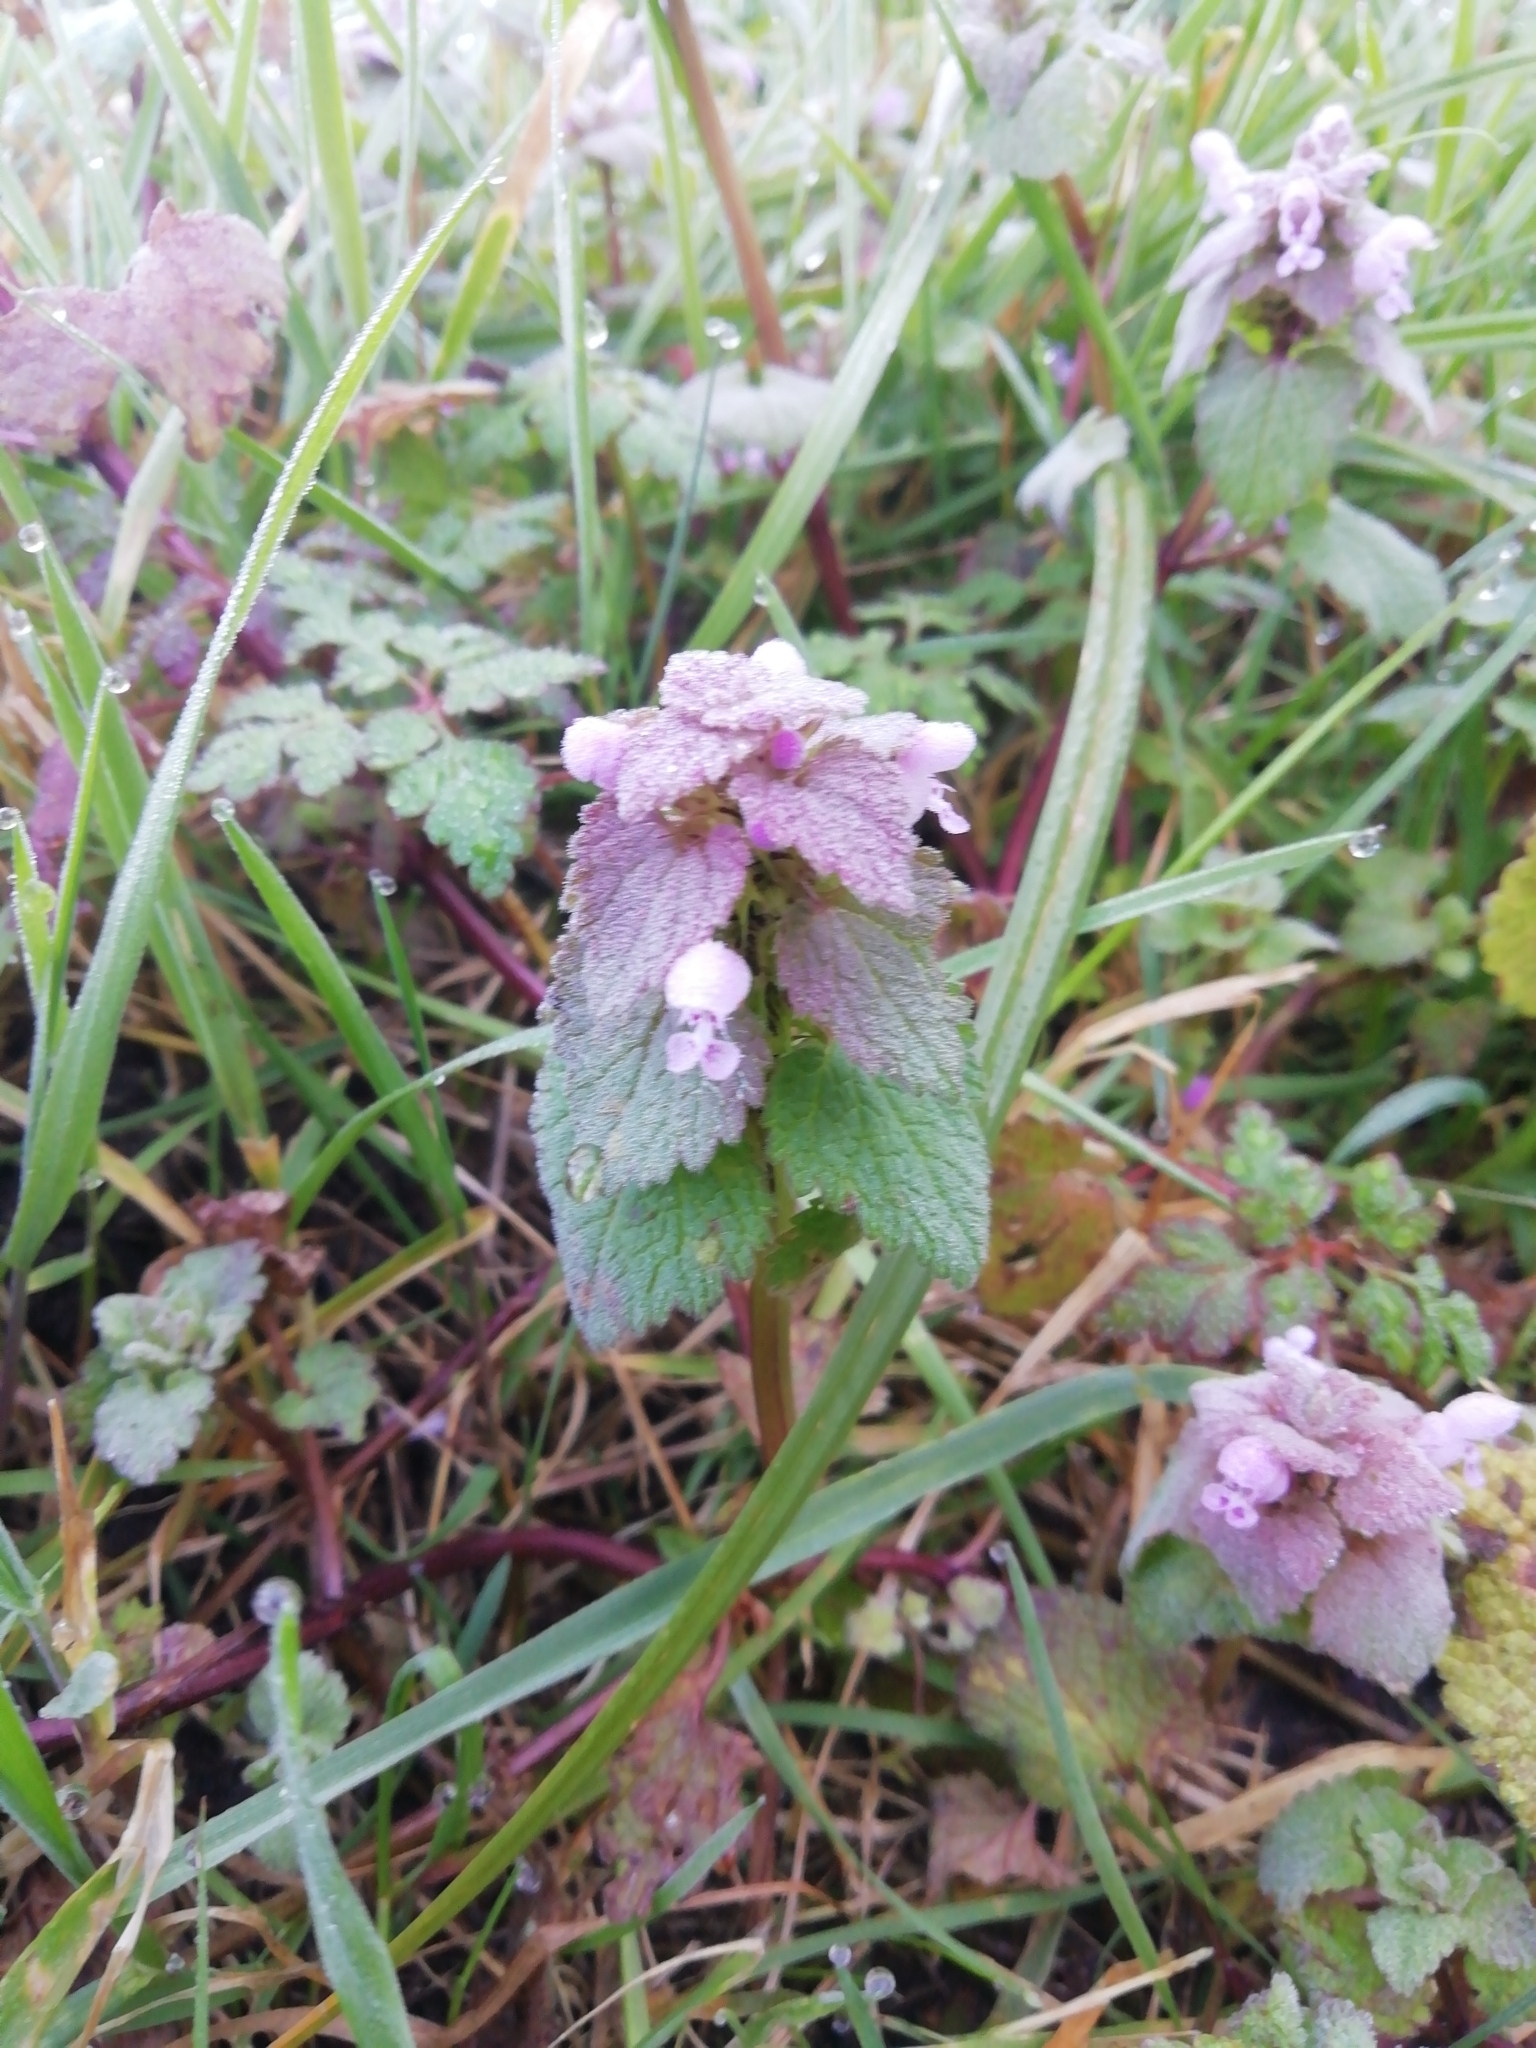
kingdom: Plantae
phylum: Tracheophyta
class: Magnoliopsida
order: Lamiales
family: Lamiaceae
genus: Lamium
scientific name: Lamium purpureum
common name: Red dead-nettle
